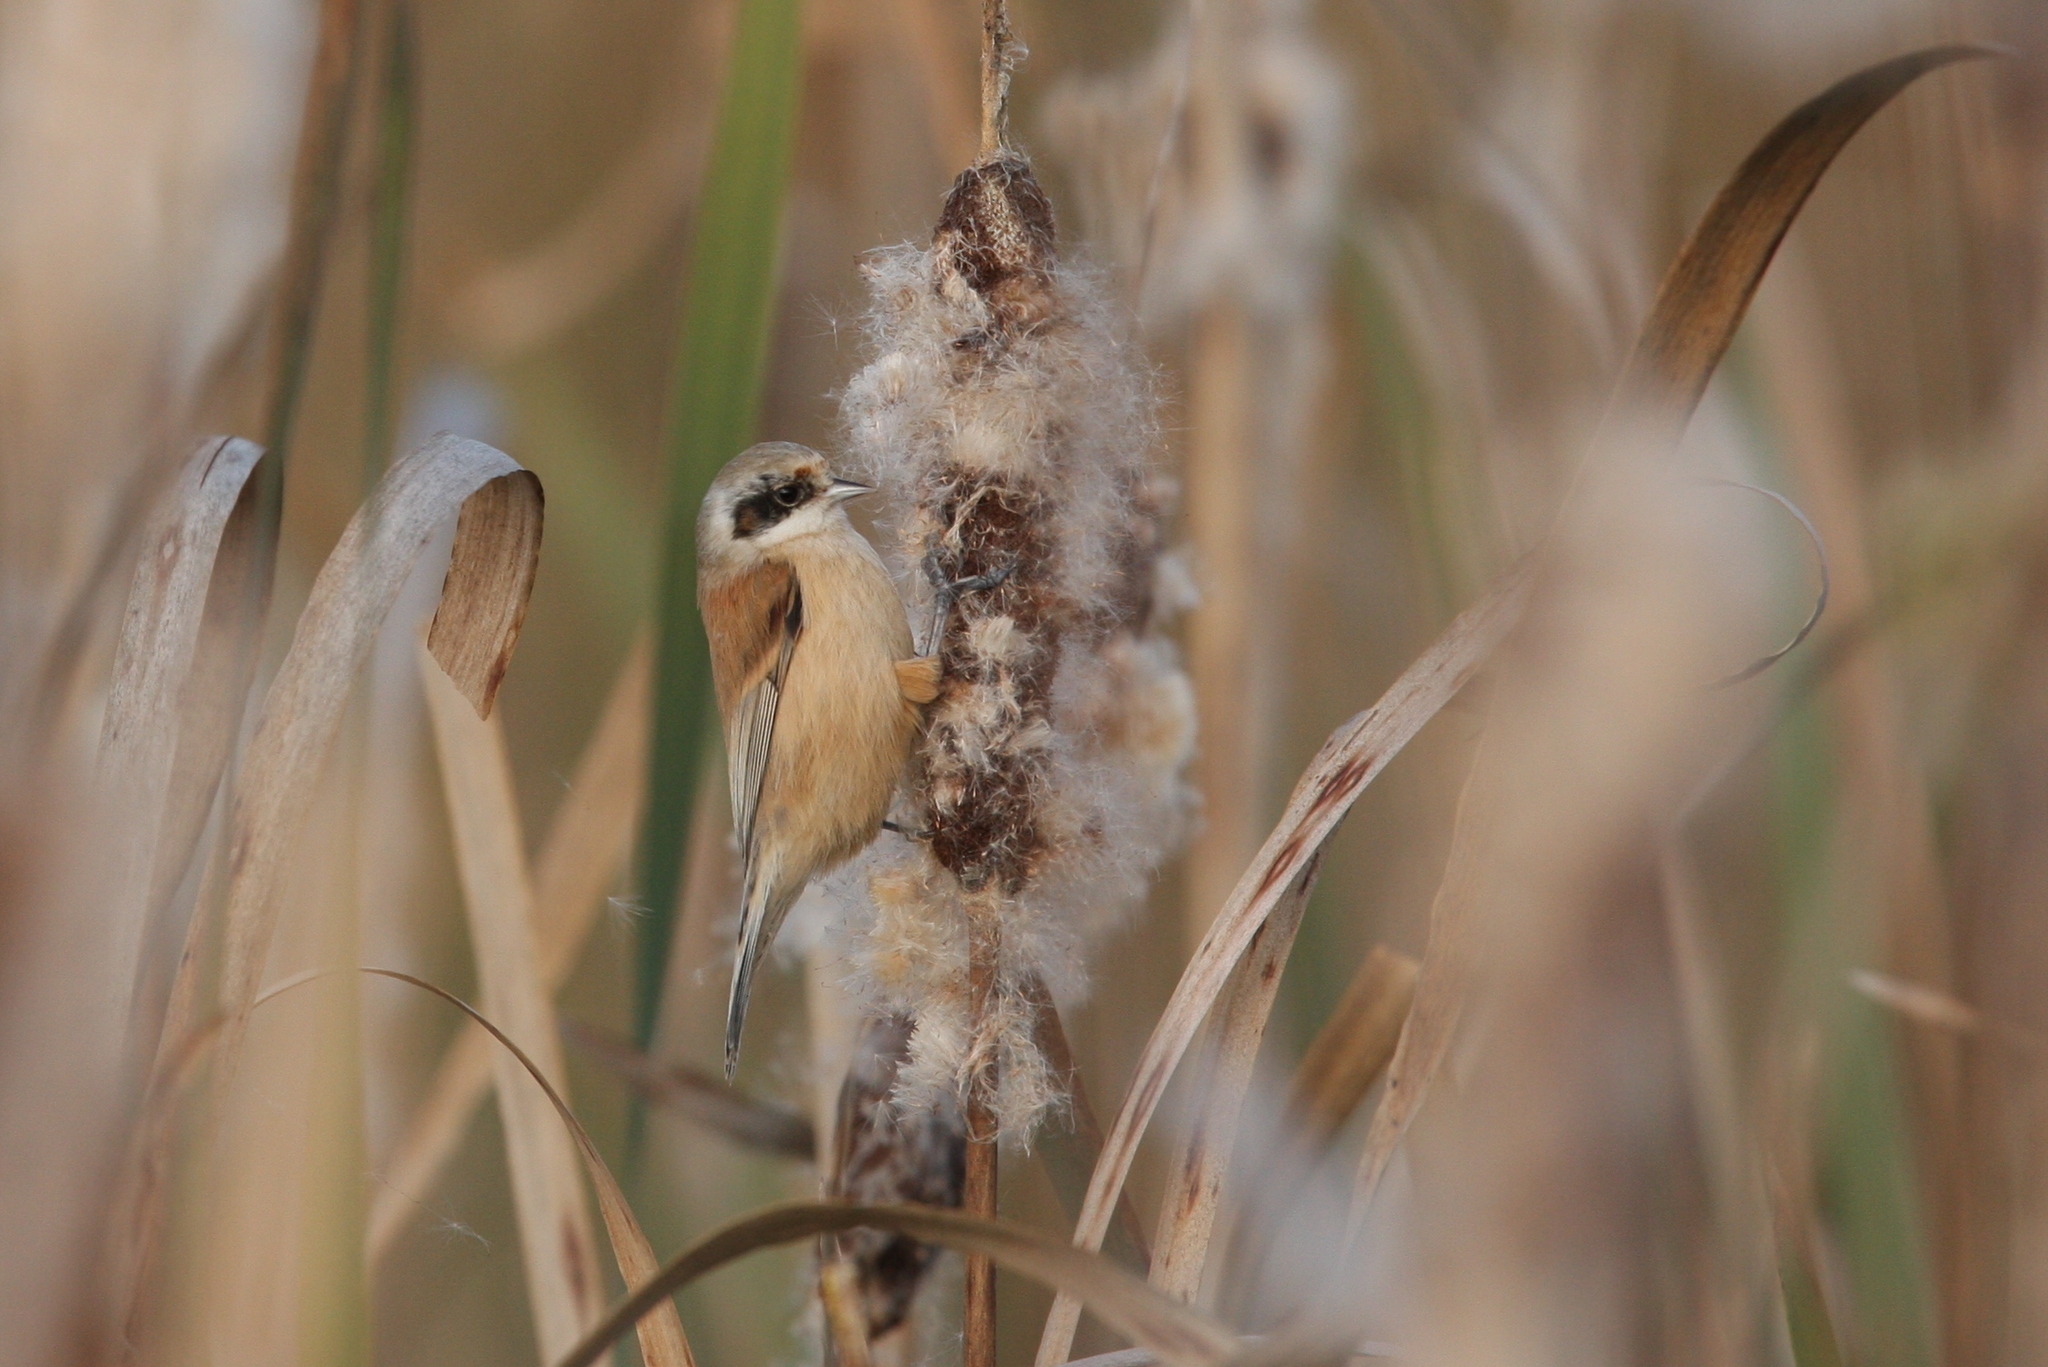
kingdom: Animalia
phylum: Chordata
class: Aves
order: Passeriformes
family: Remizidae
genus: Remiz
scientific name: Remiz pendulinus
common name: Eurasian penduline tit
